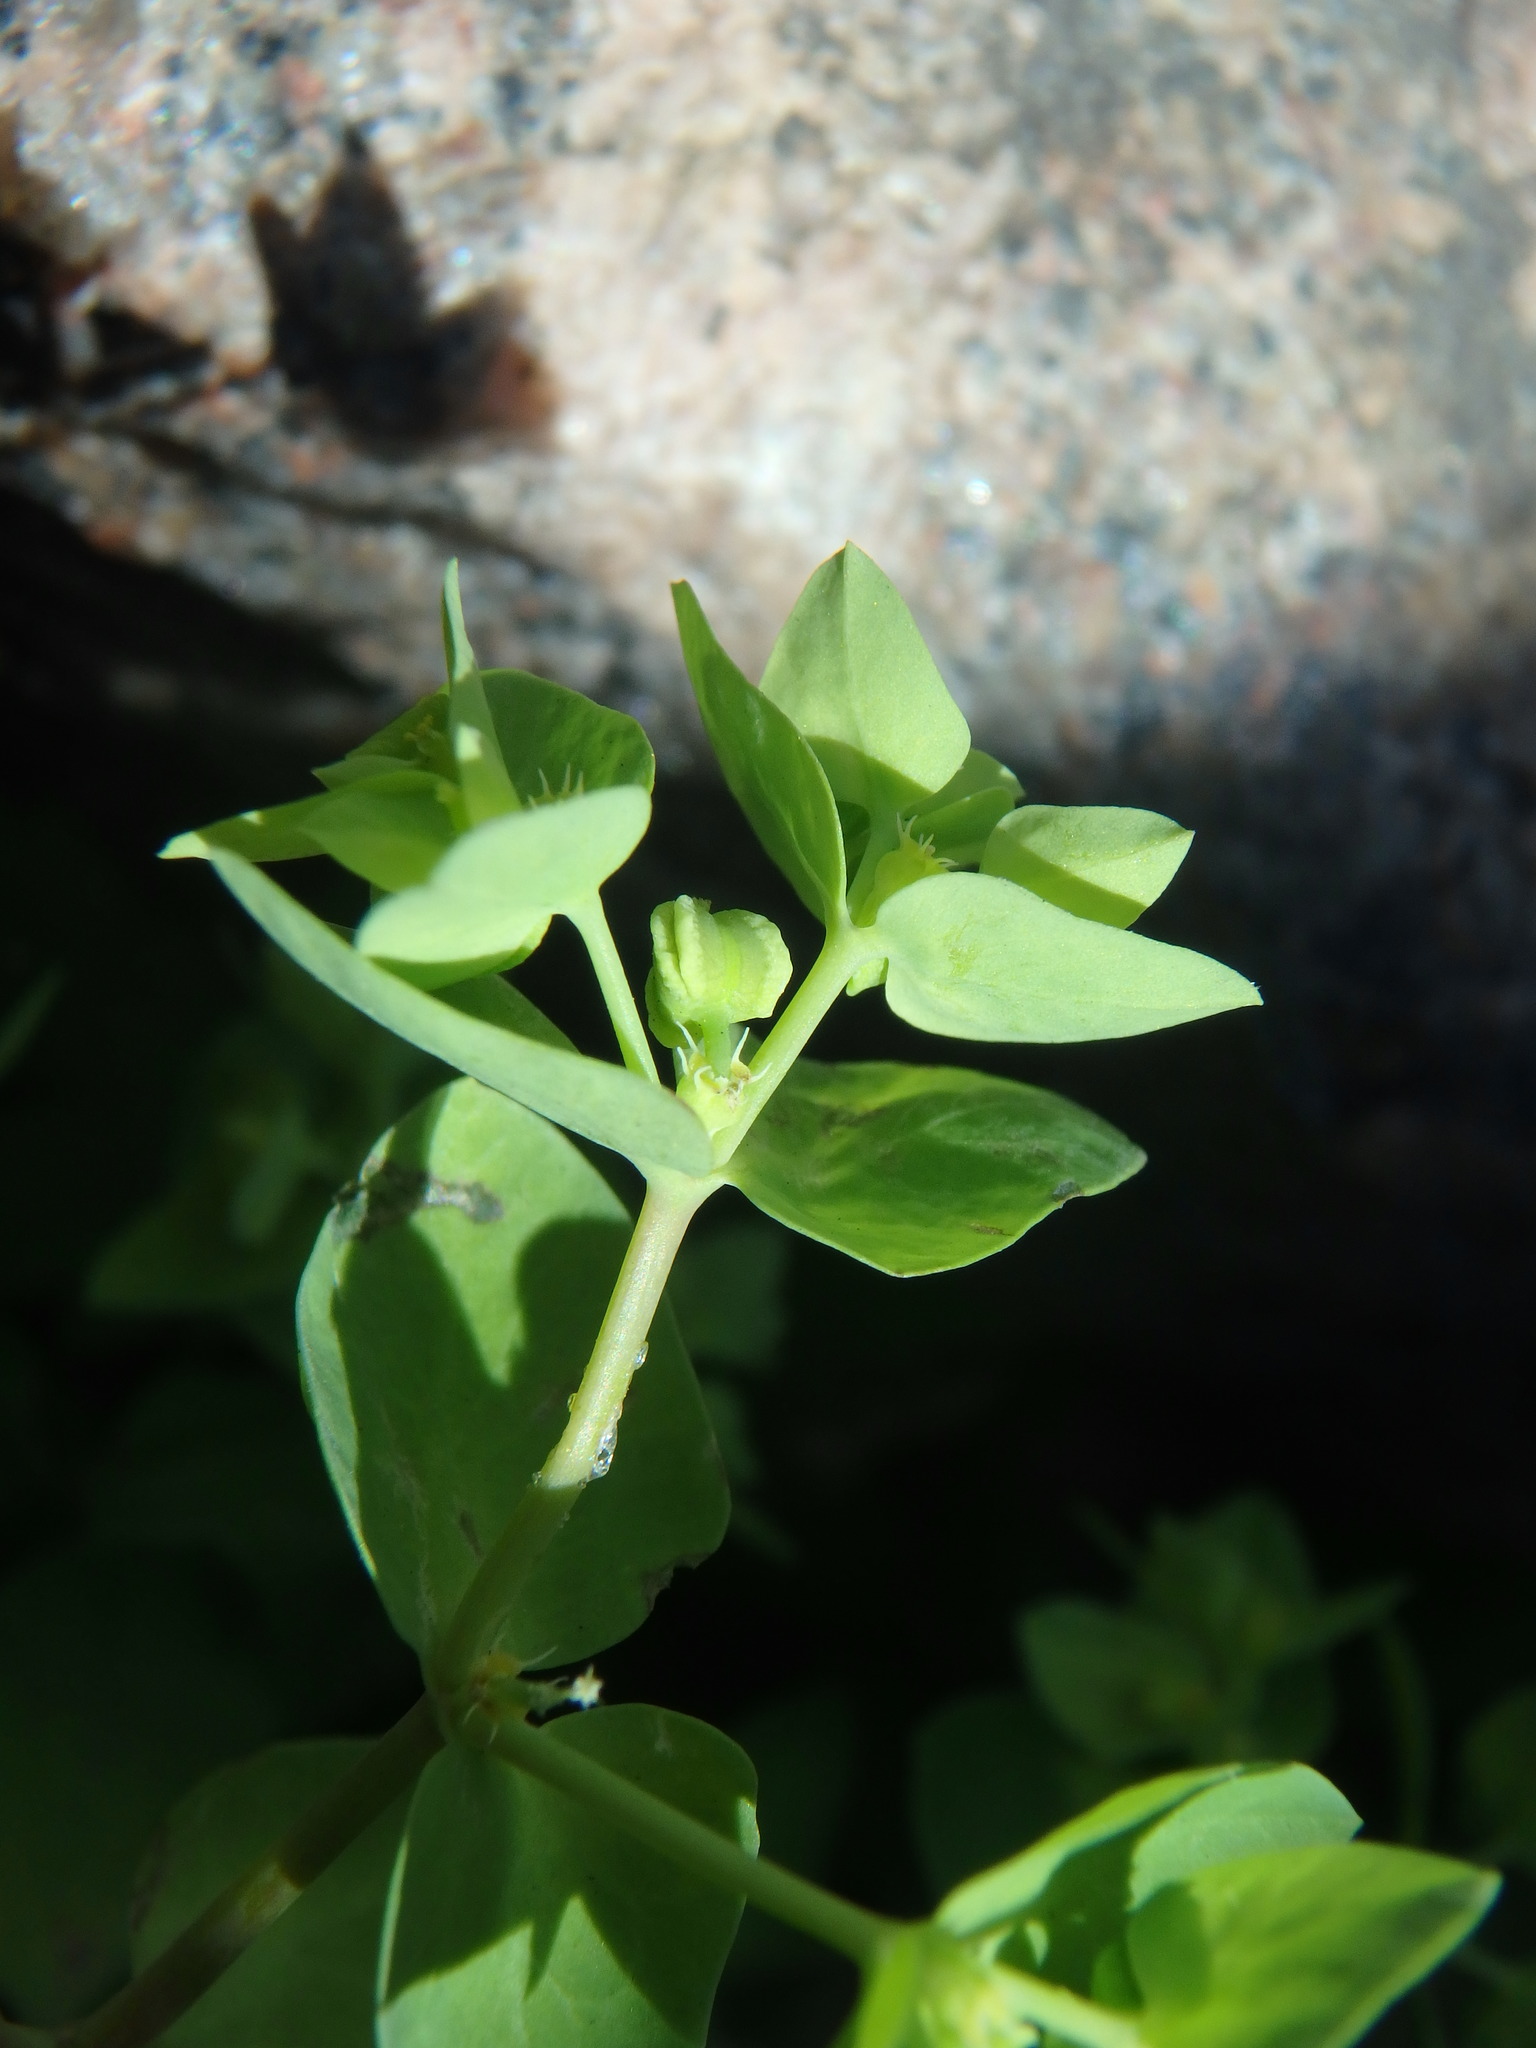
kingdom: Plantae
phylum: Tracheophyta
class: Magnoliopsida
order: Malpighiales
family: Euphorbiaceae
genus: Euphorbia
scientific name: Euphorbia peplus
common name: Petty spurge
